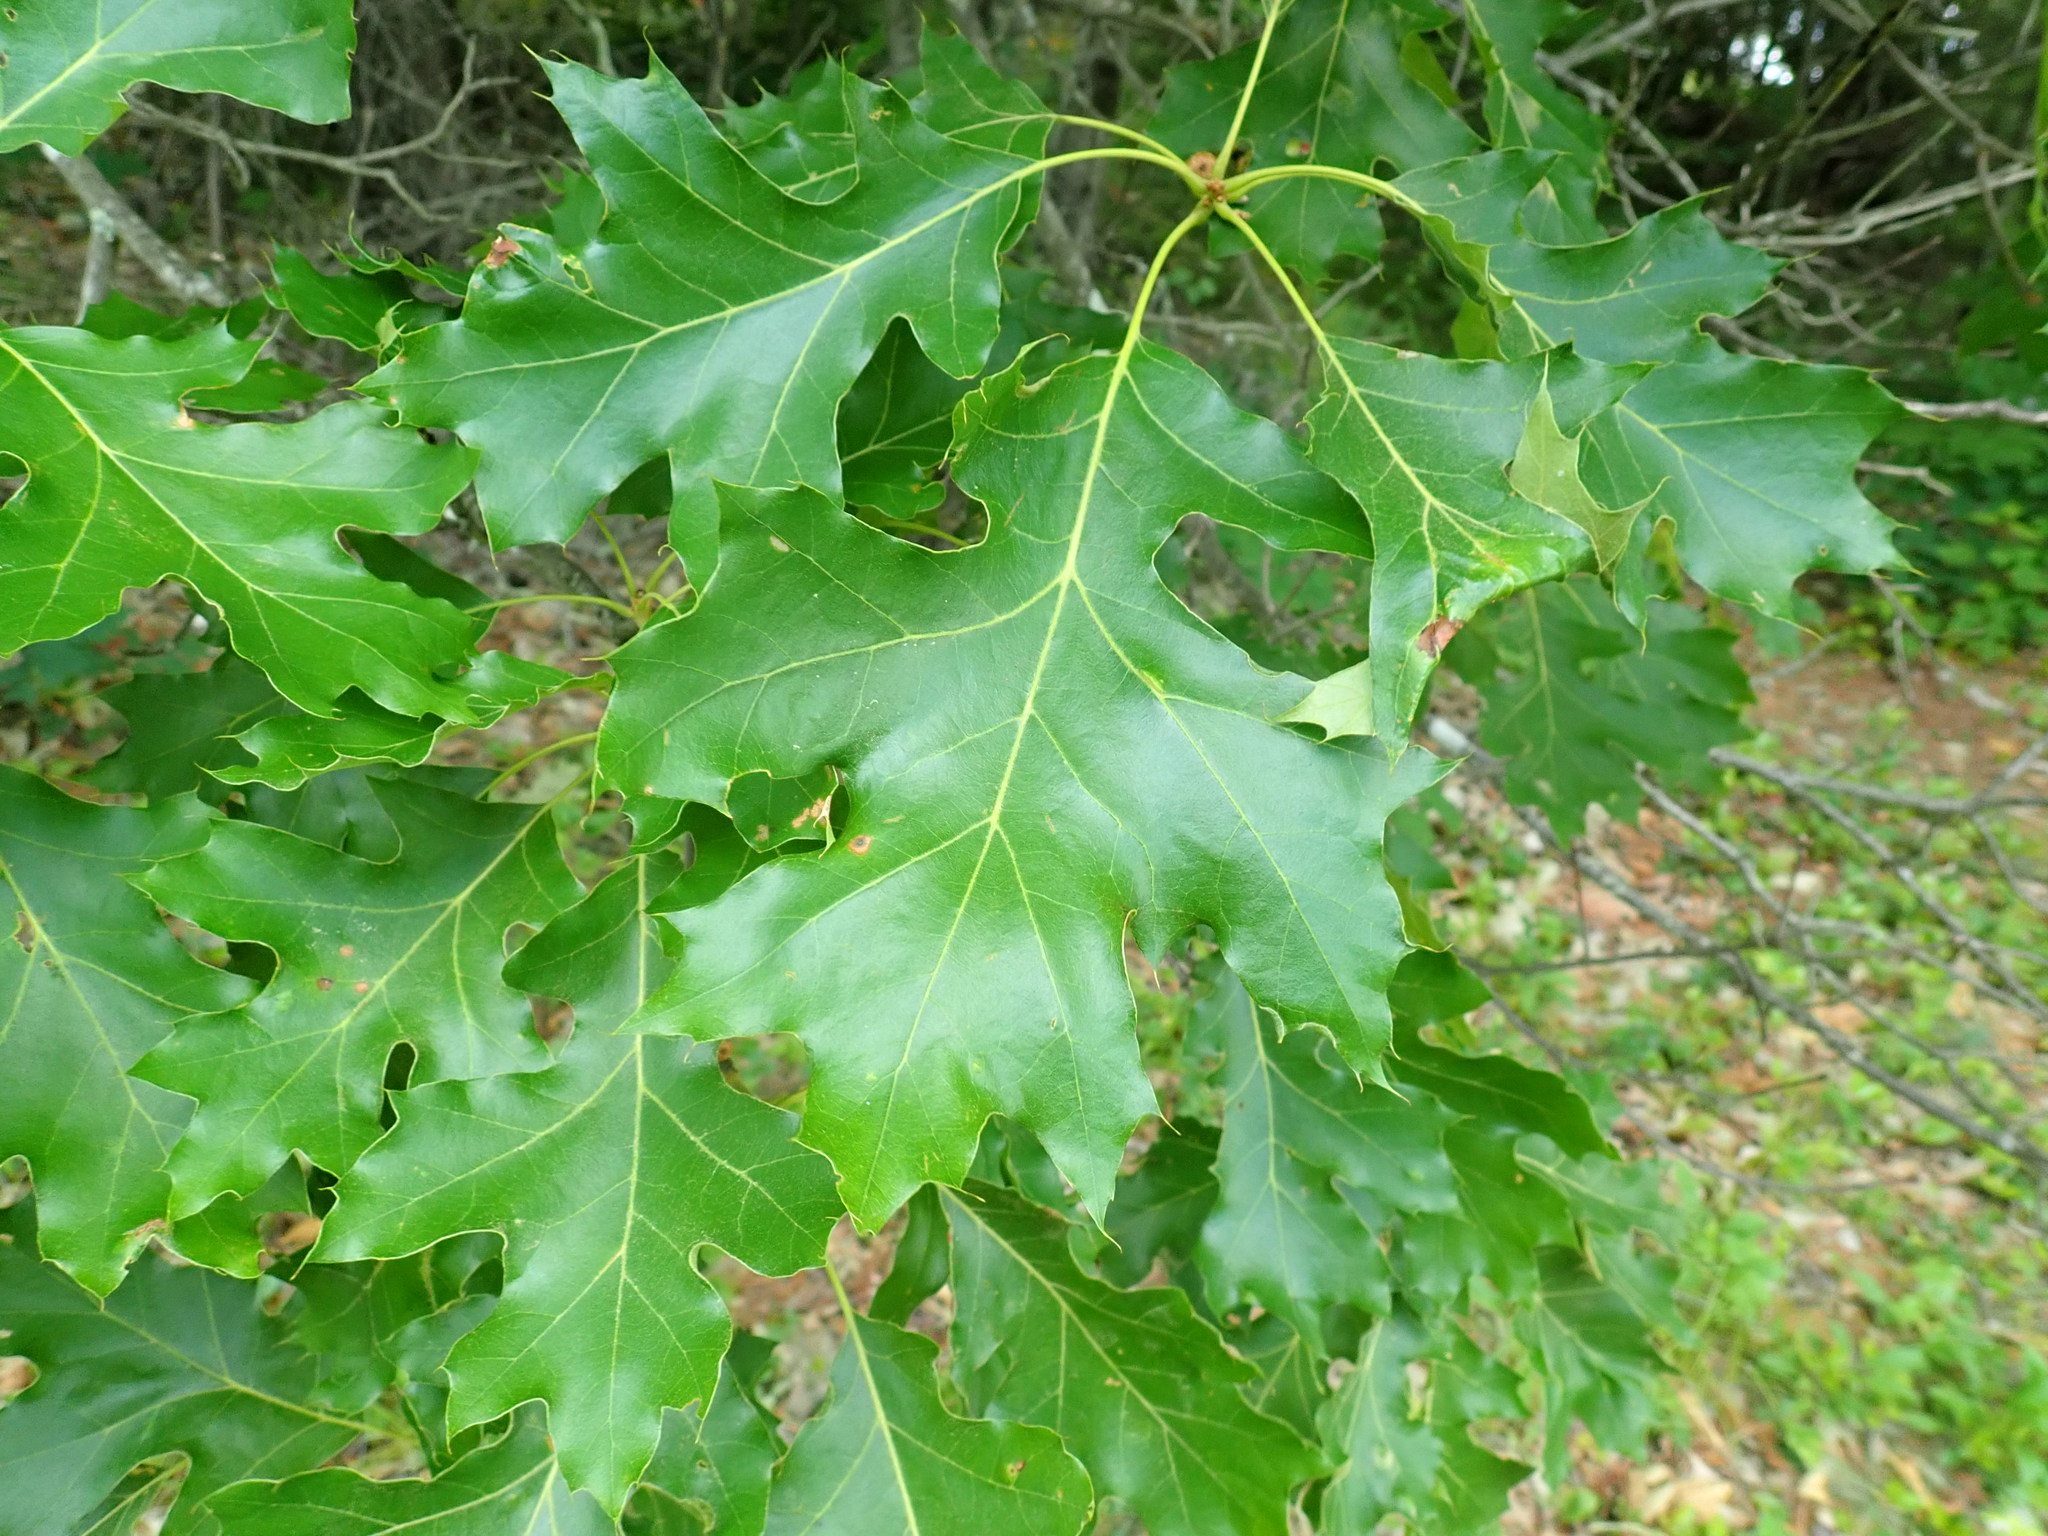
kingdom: Plantae
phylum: Tracheophyta
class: Magnoliopsida
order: Fagales
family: Fagaceae
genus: Quercus
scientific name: Quercus velutina
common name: Black oak
